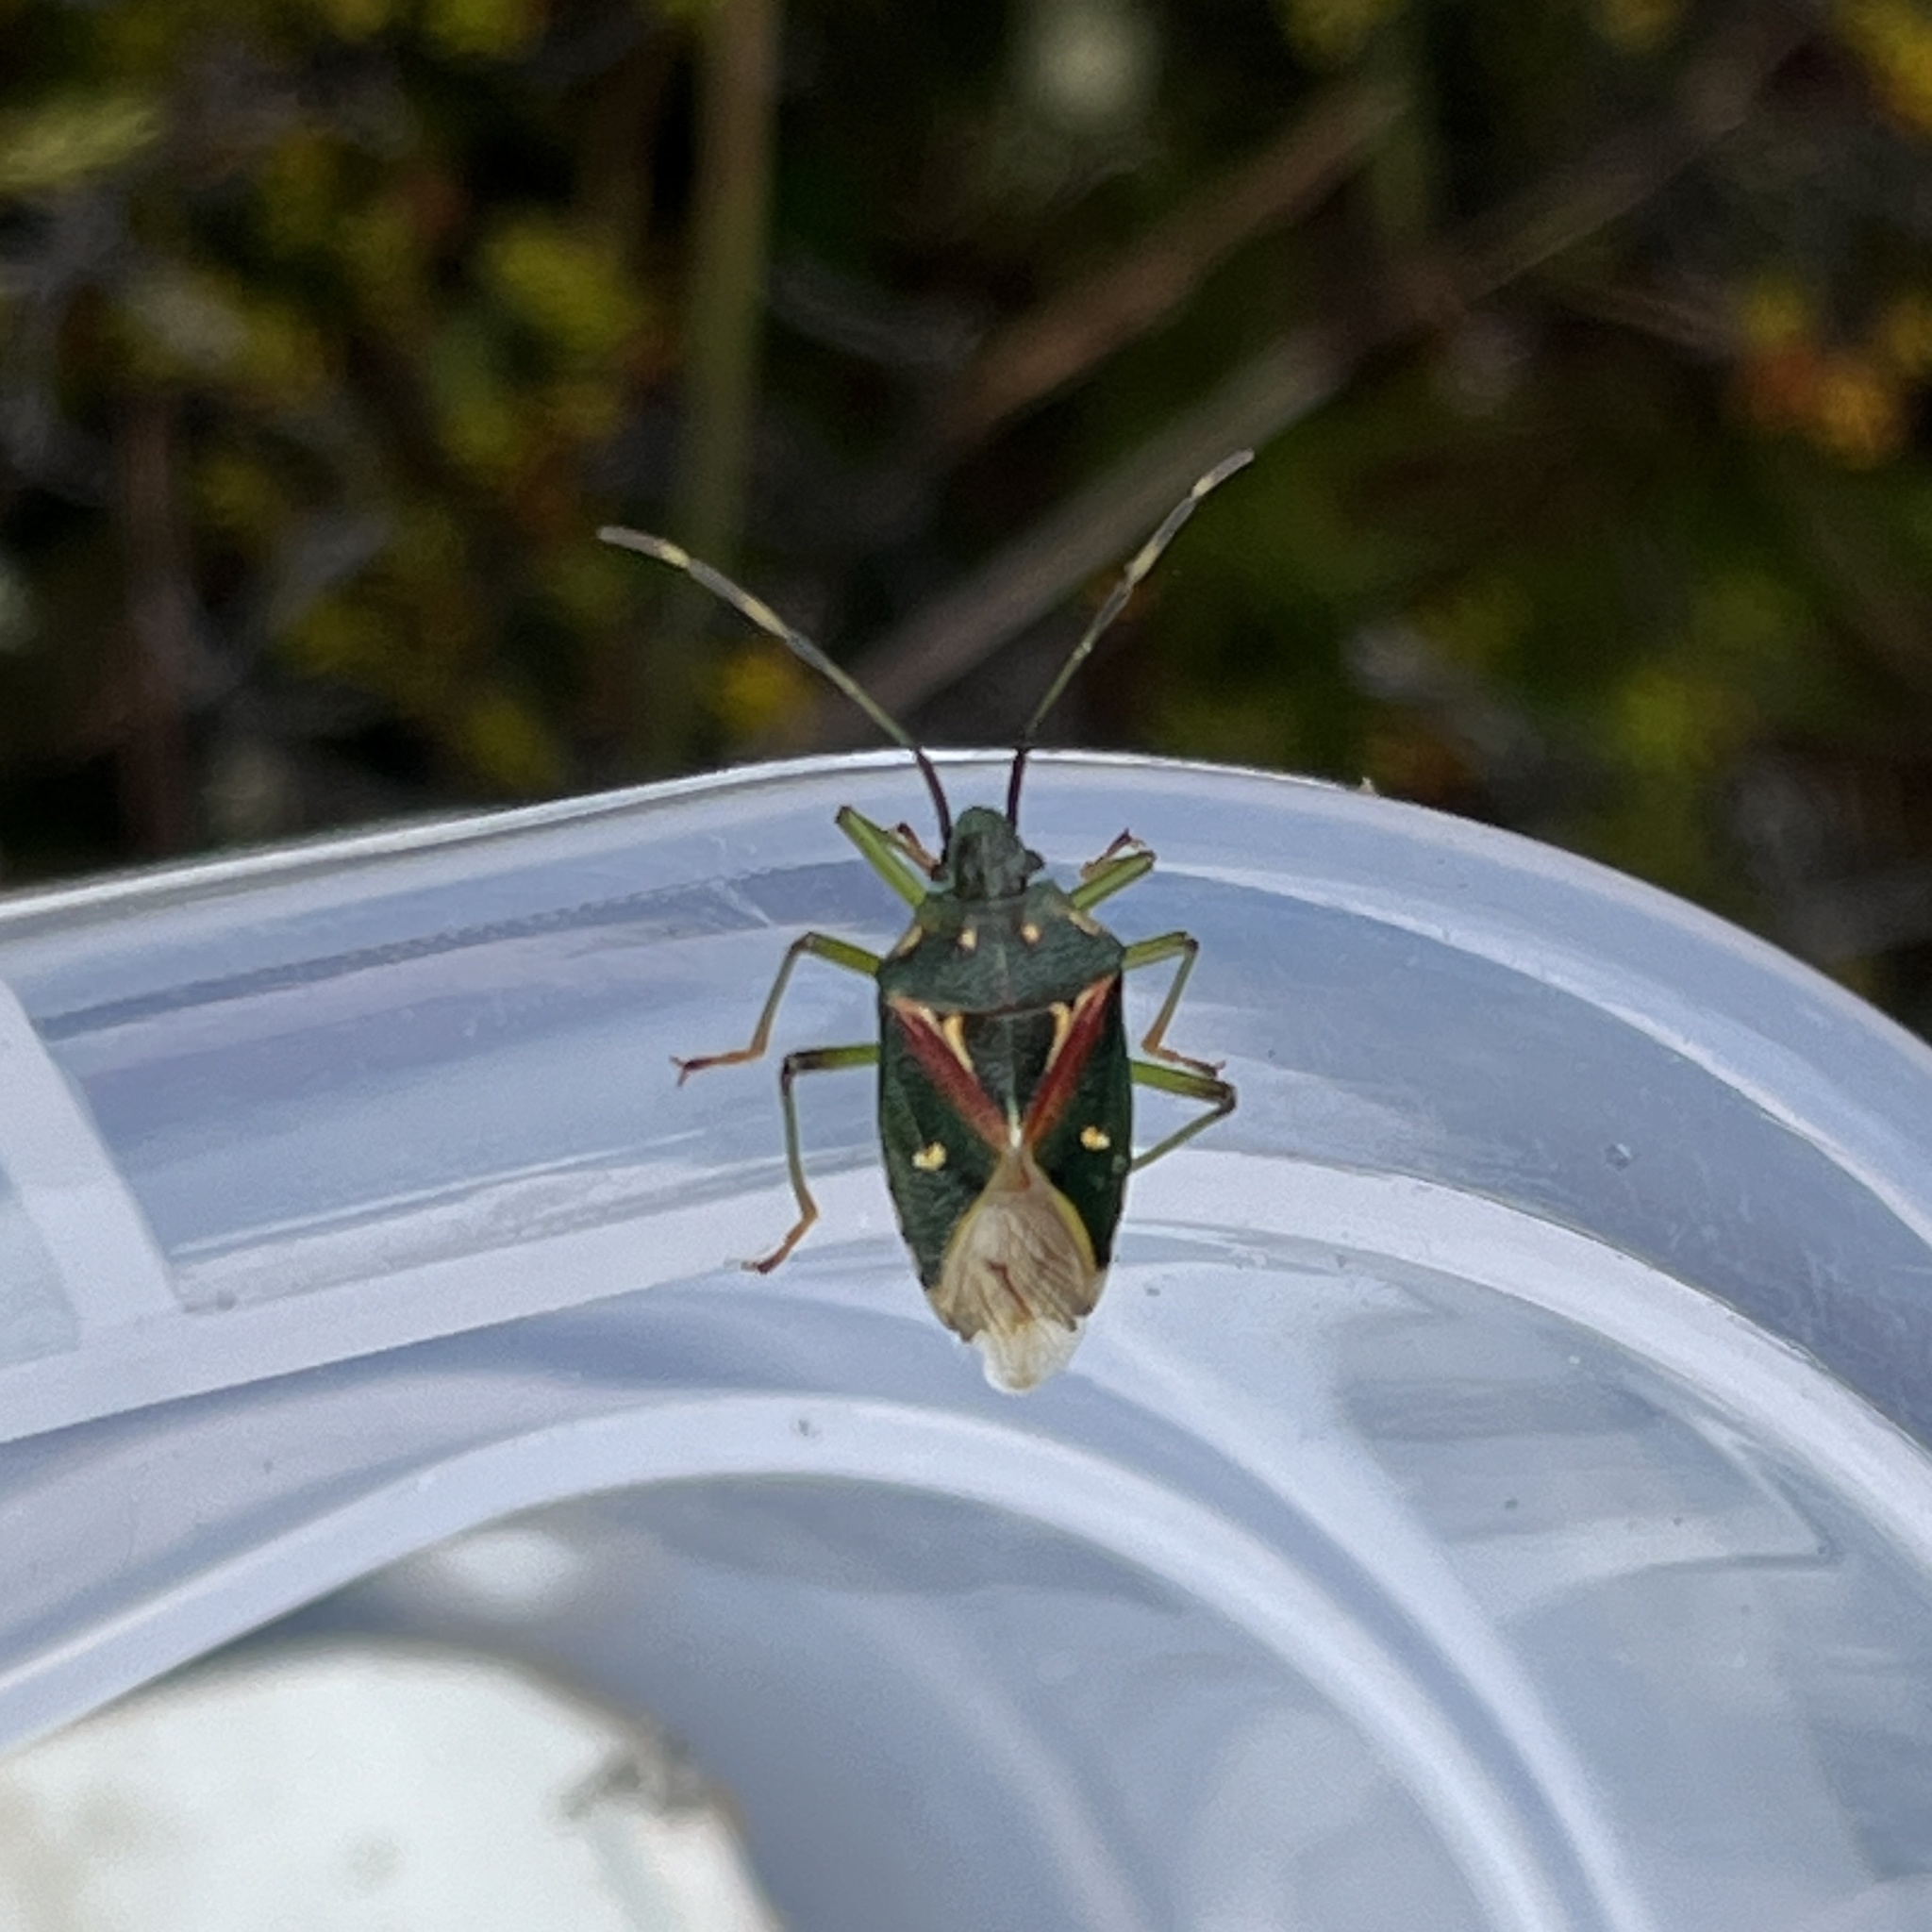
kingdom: Animalia
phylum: Arthropoda
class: Insecta
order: Hemiptera
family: Acanthosomatidae
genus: Planois
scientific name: Planois smaug
